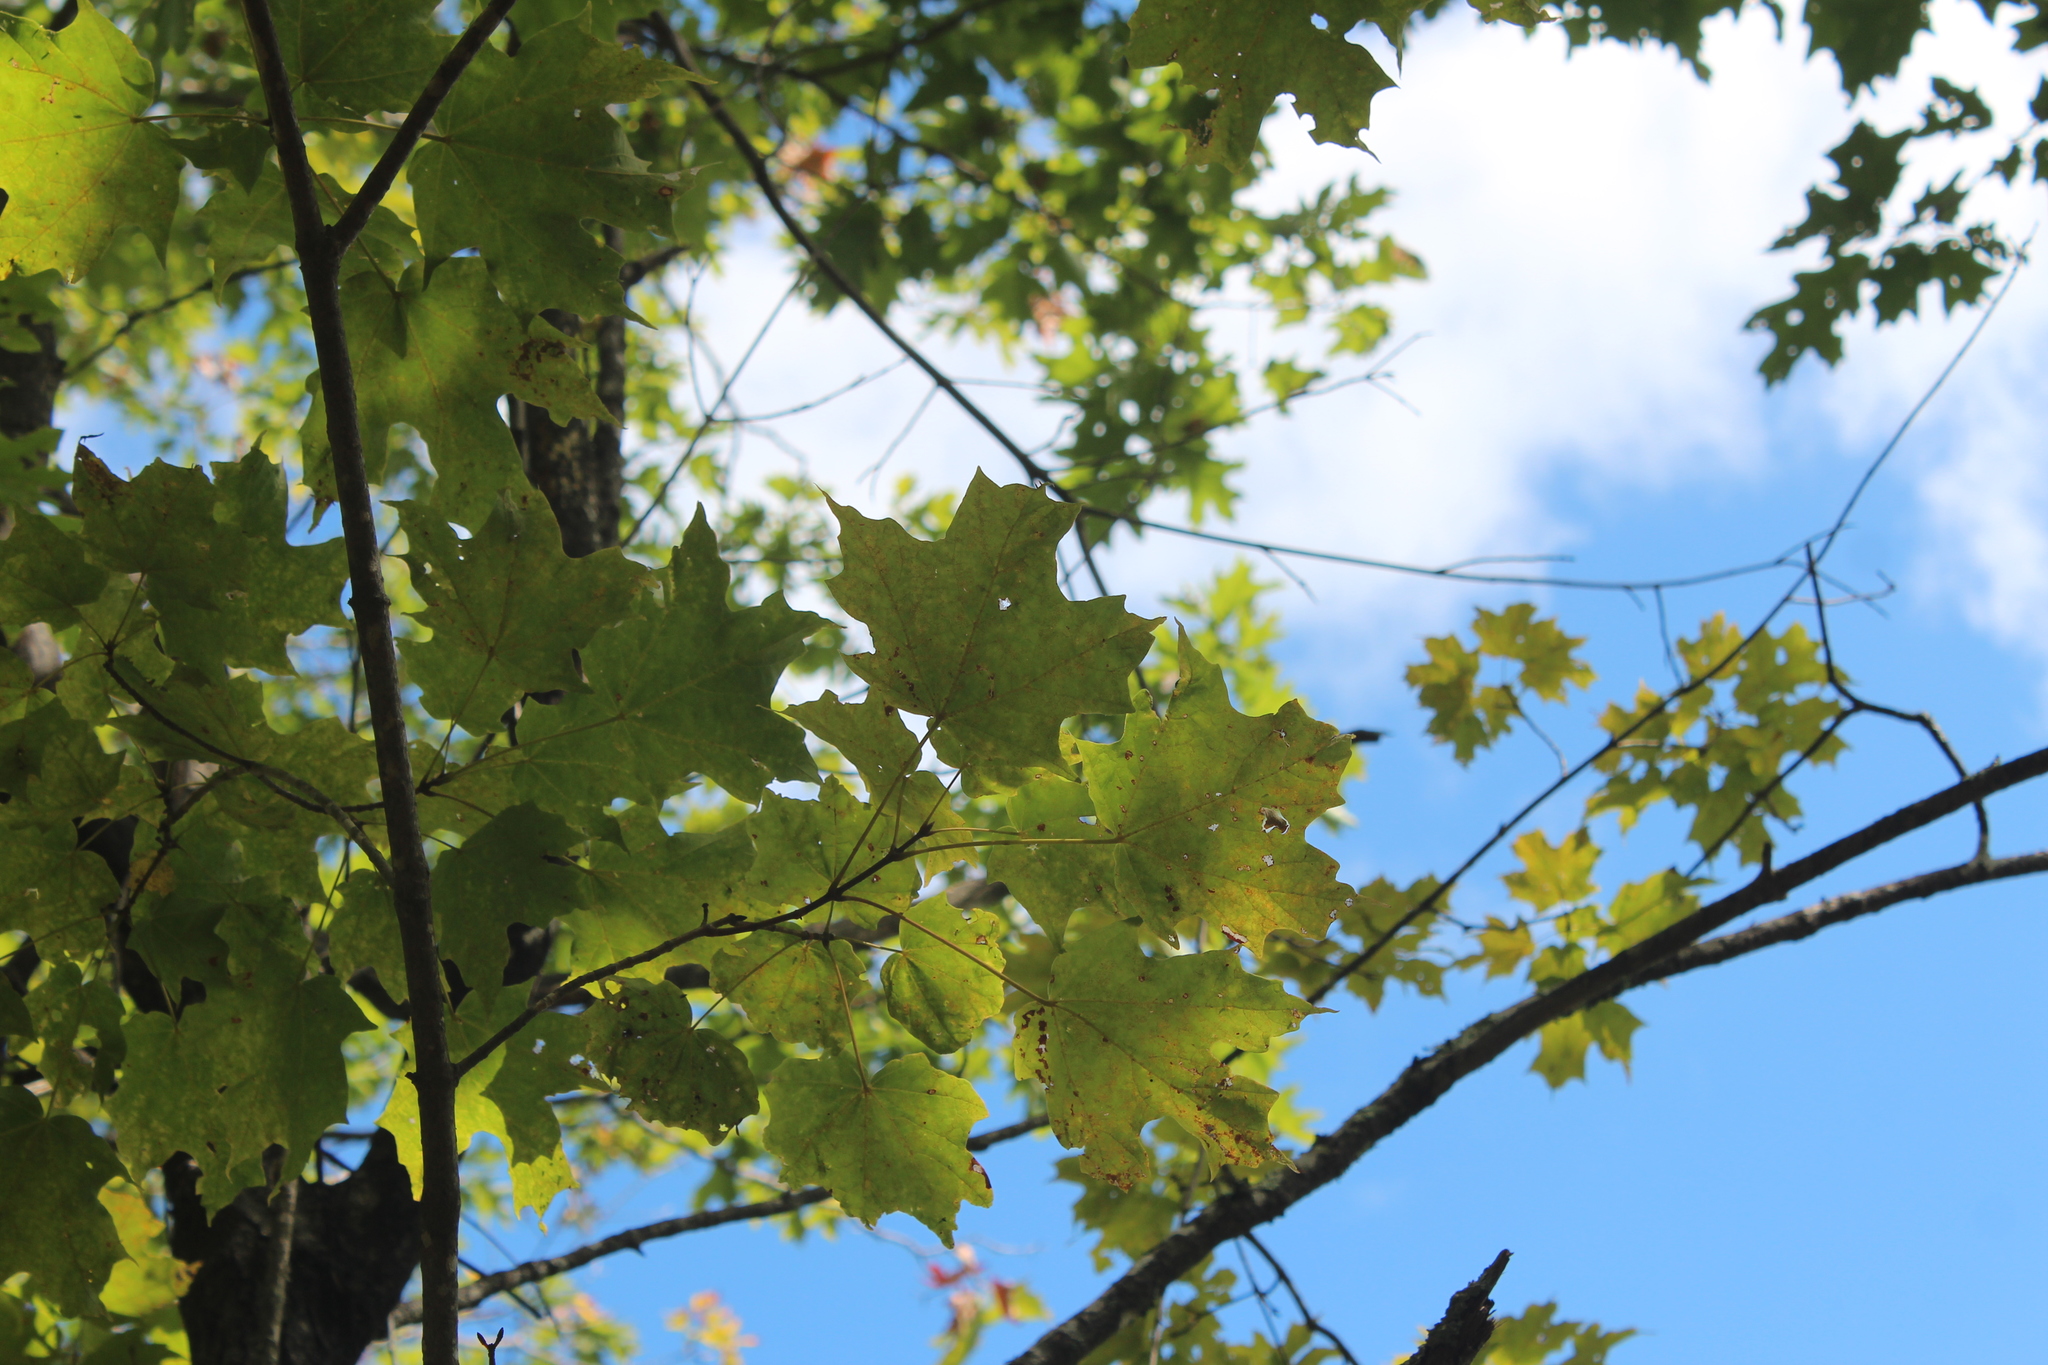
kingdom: Plantae
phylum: Tracheophyta
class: Magnoliopsida
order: Sapindales
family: Sapindaceae
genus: Acer
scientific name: Acer saccharum
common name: Sugar maple
